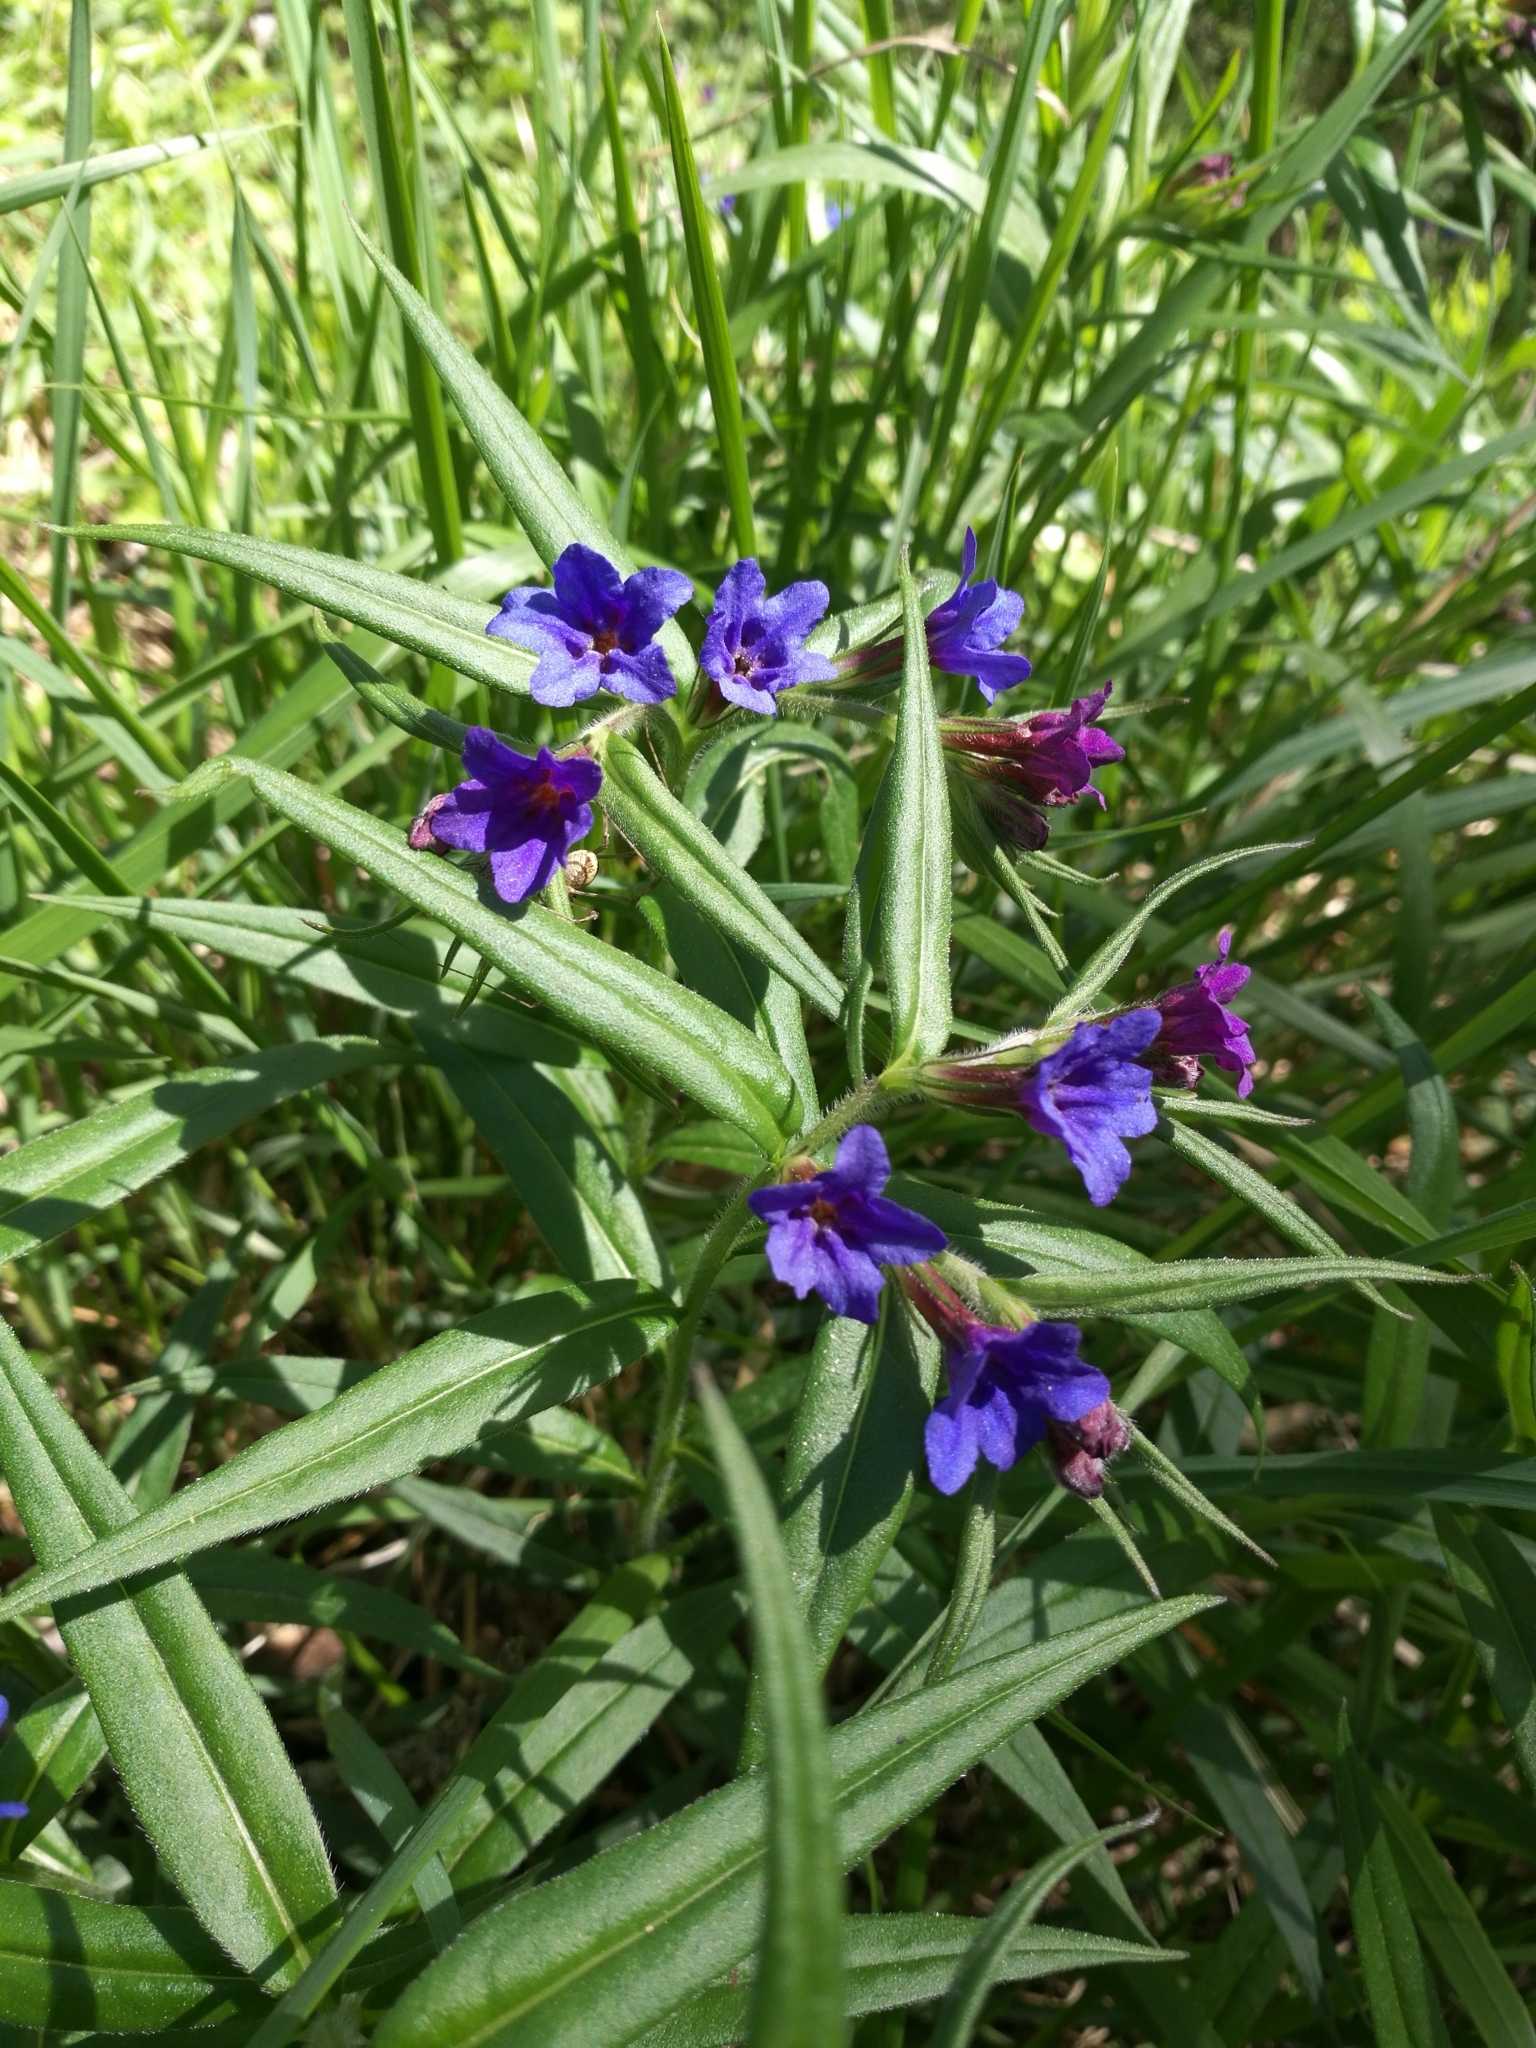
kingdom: Plantae
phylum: Tracheophyta
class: Magnoliopsida
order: Boraginales
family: Boraginaceae
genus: Aegonychon
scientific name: Aegonychon purpurocaeruleum
